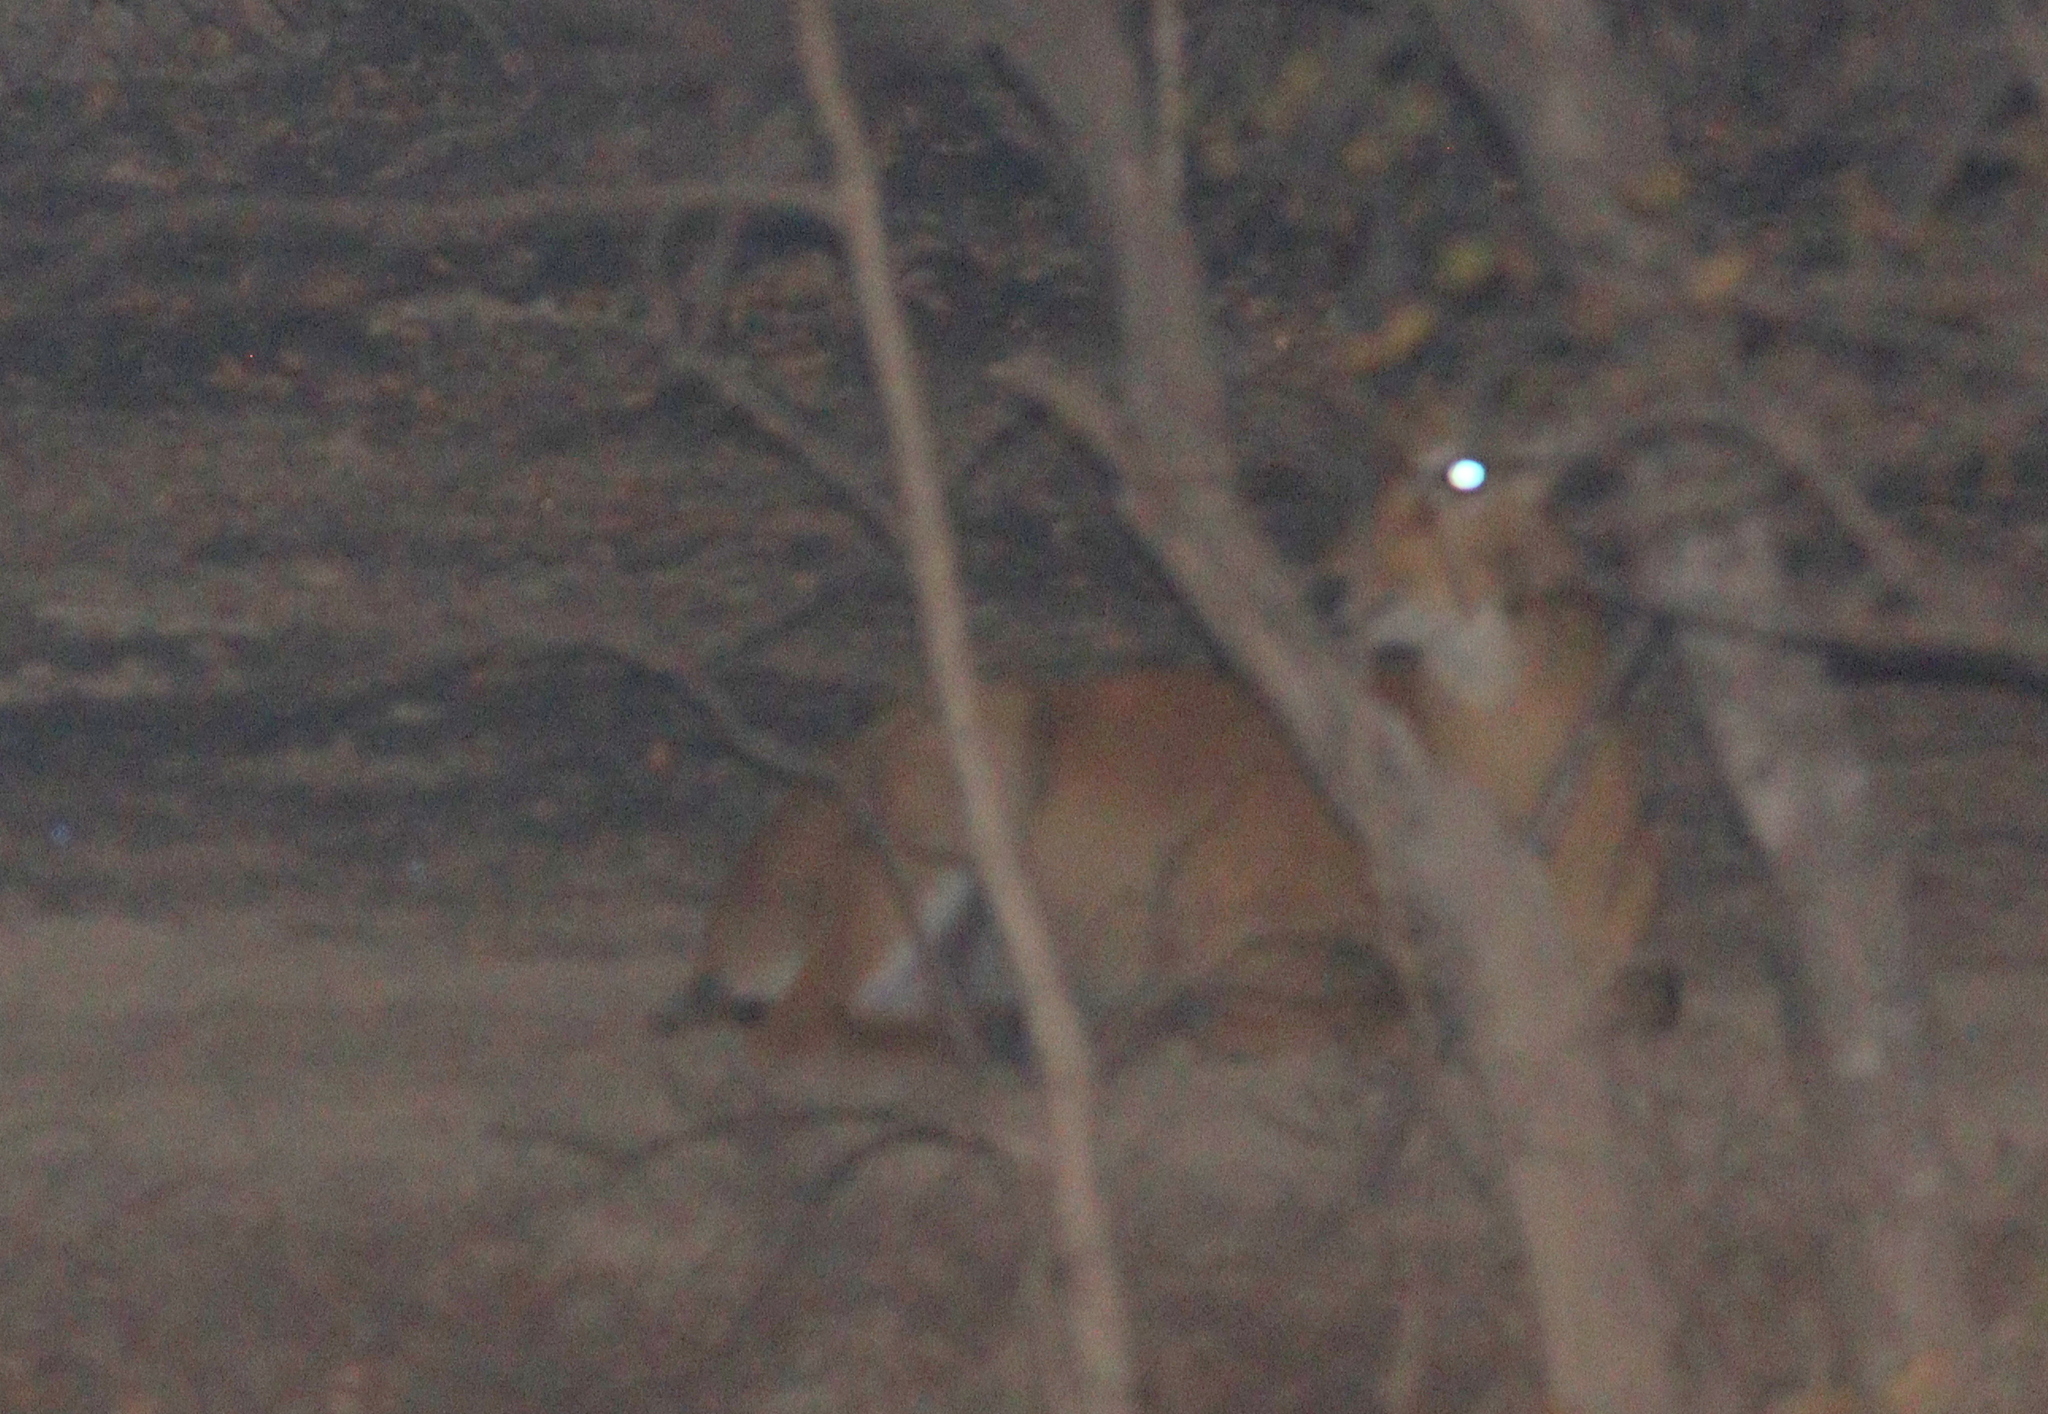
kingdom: Animalia
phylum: Chordata
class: Mammalia
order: Artiodactyla
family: Bovidae
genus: Kobus
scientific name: Kobus kob
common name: Kob
